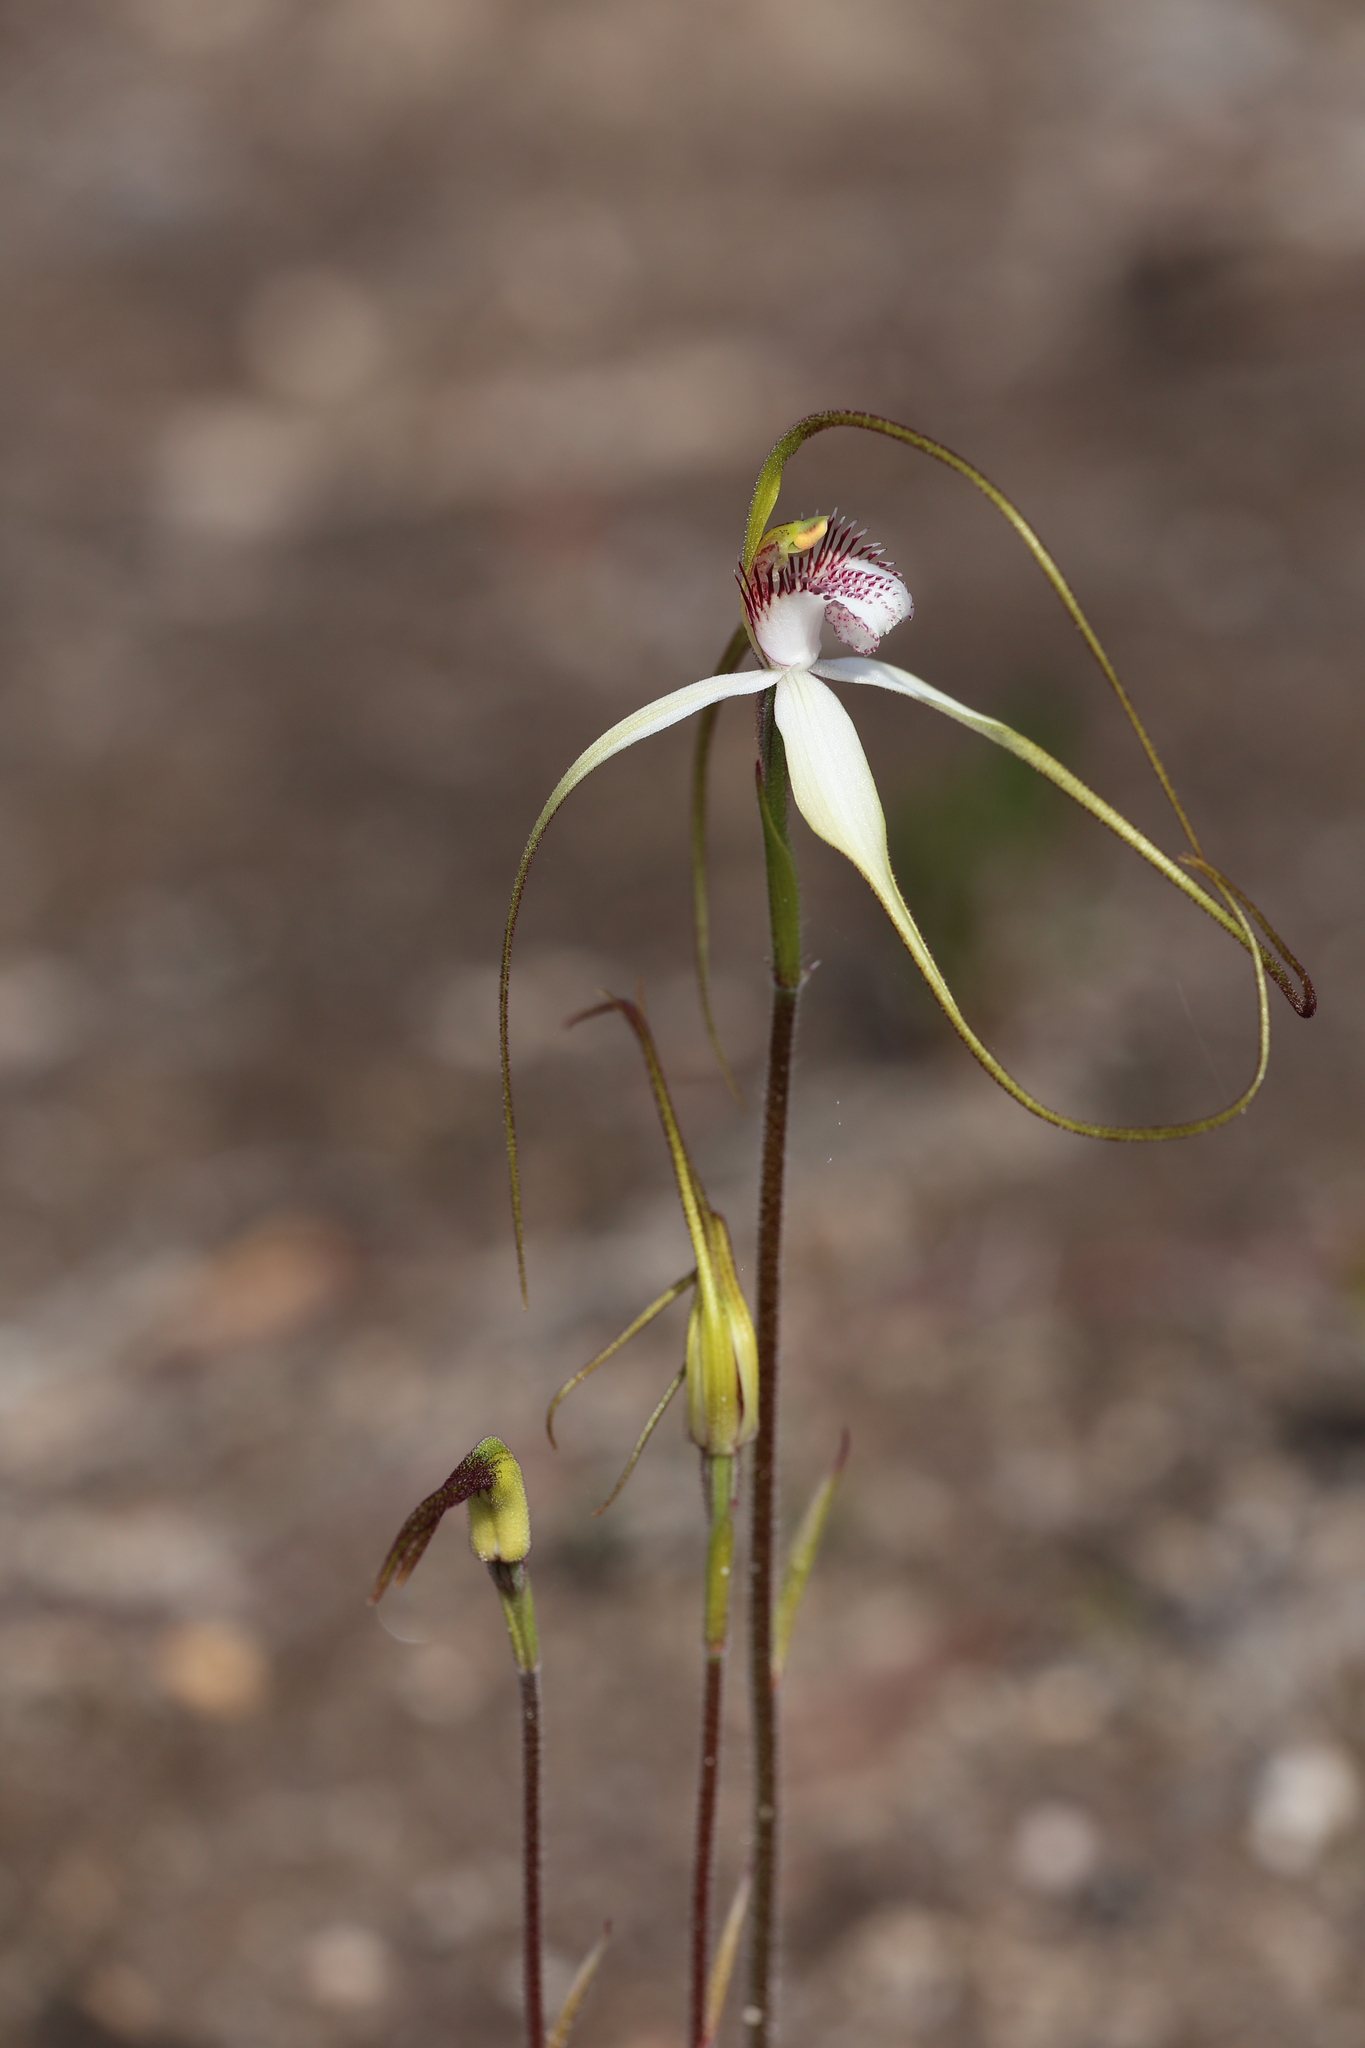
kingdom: Plantae
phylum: Tracheophyta
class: Liliopsida
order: Asparagales
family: Orchidaceae
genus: Caladenia
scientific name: Caladenia longicauda
